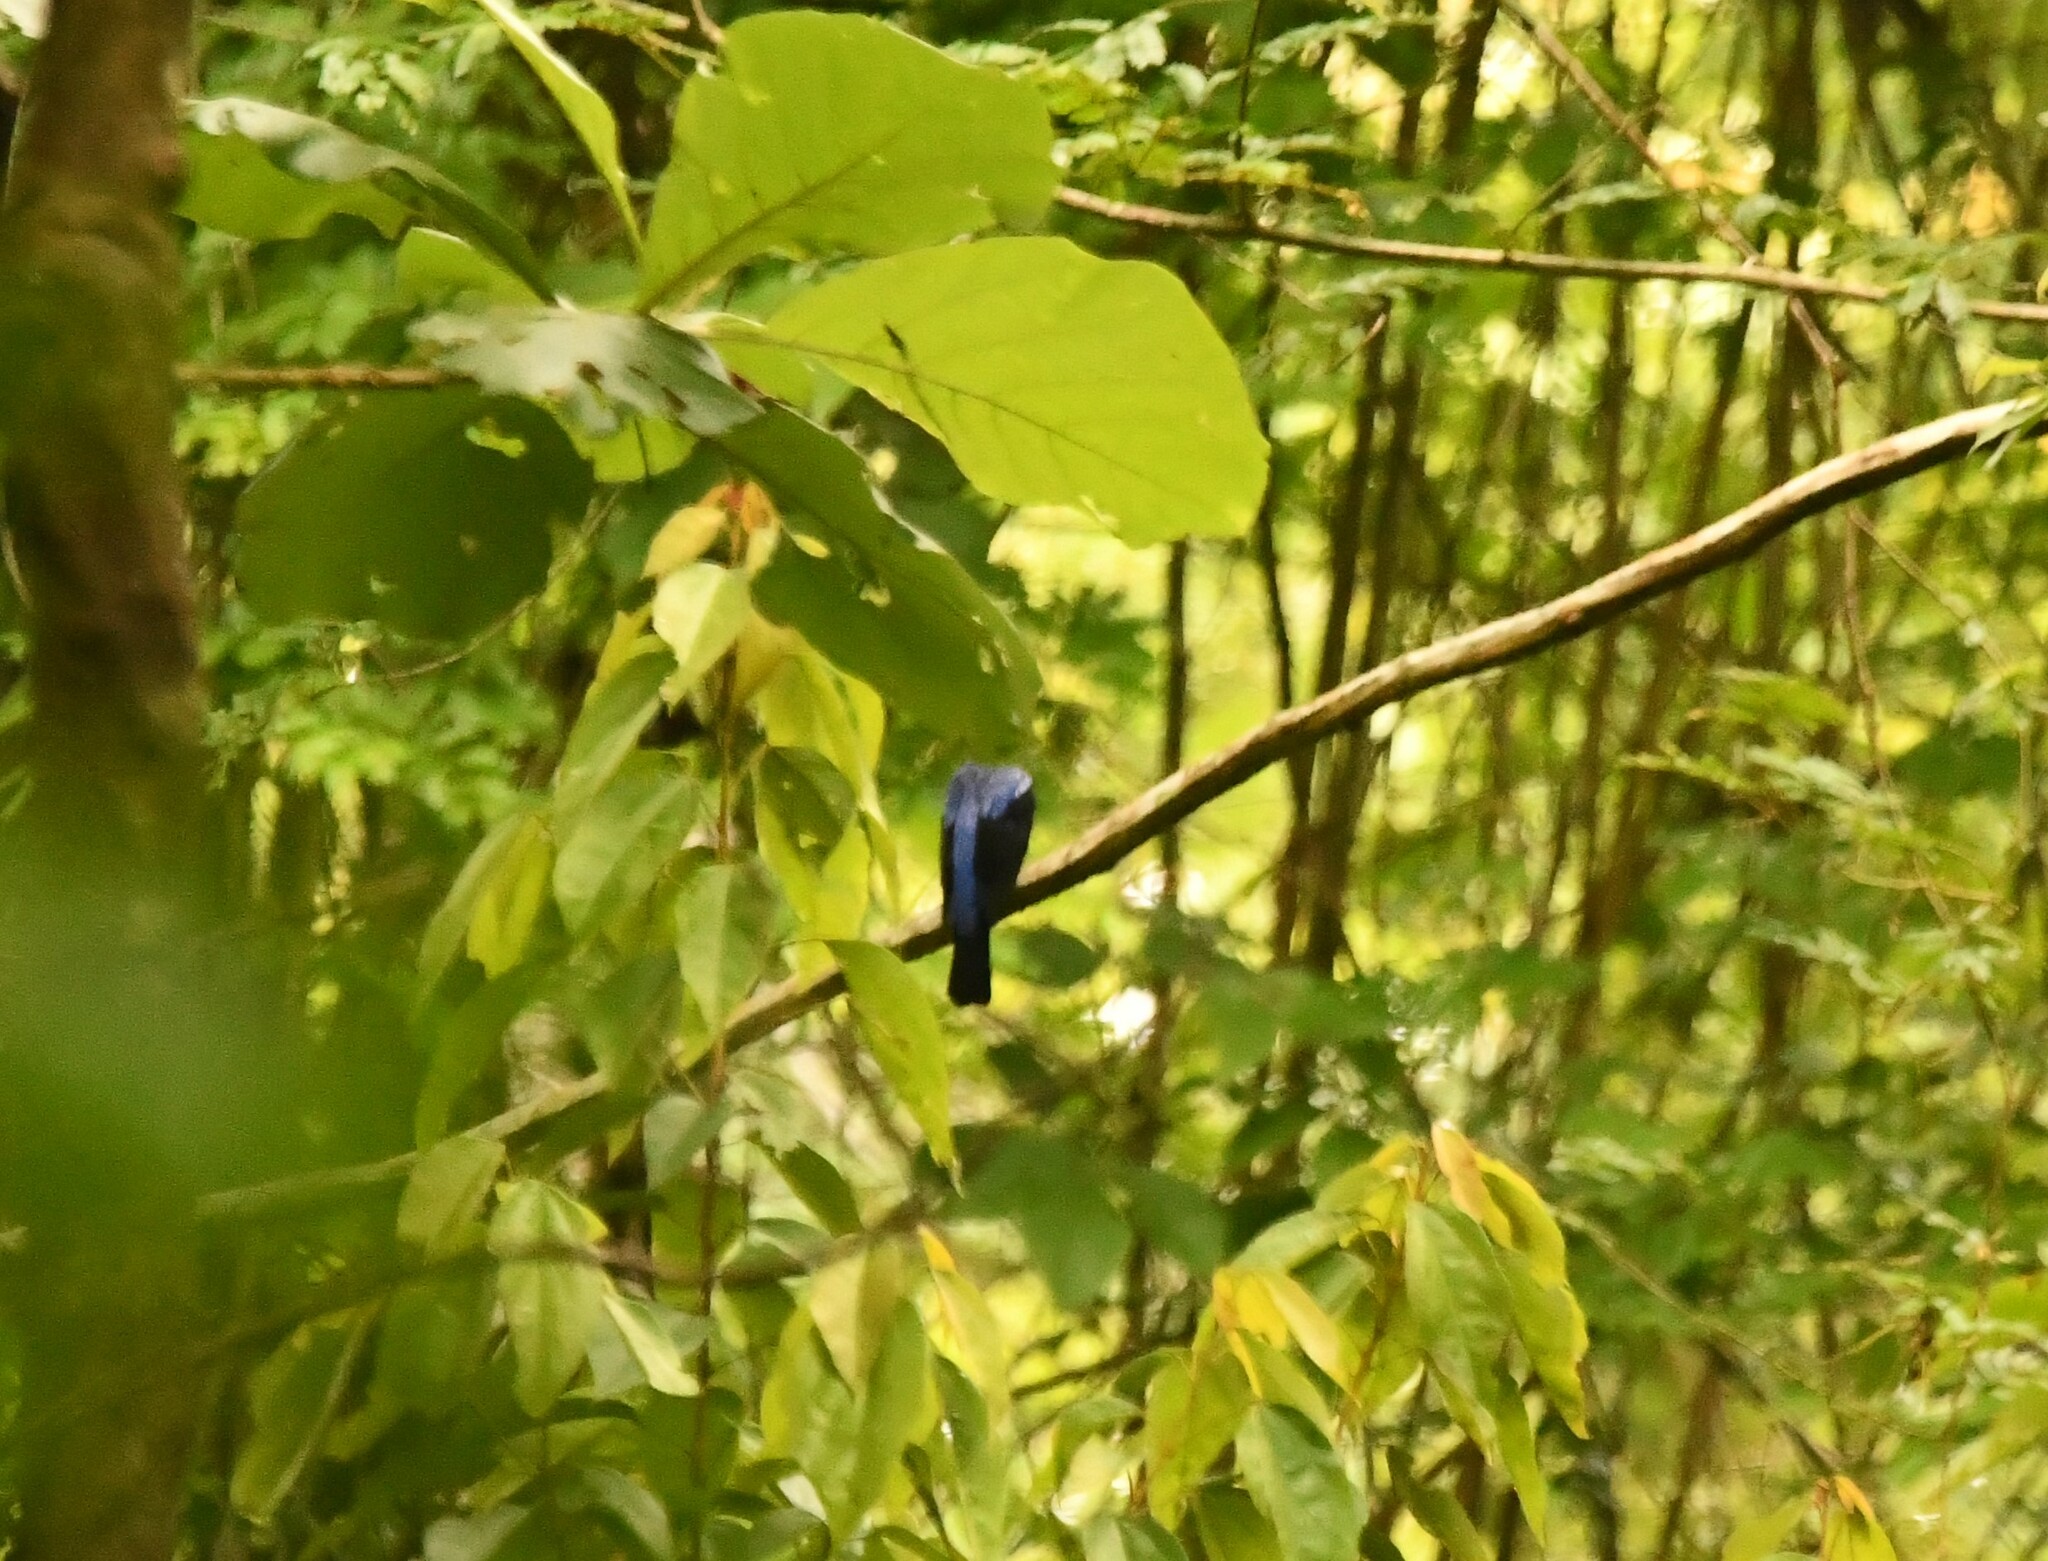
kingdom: Animalia
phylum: Chordata
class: Aves
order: Passeriformes
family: Irenidae
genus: Irena
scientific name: Irena puella
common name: Asian fairy-bluebird
